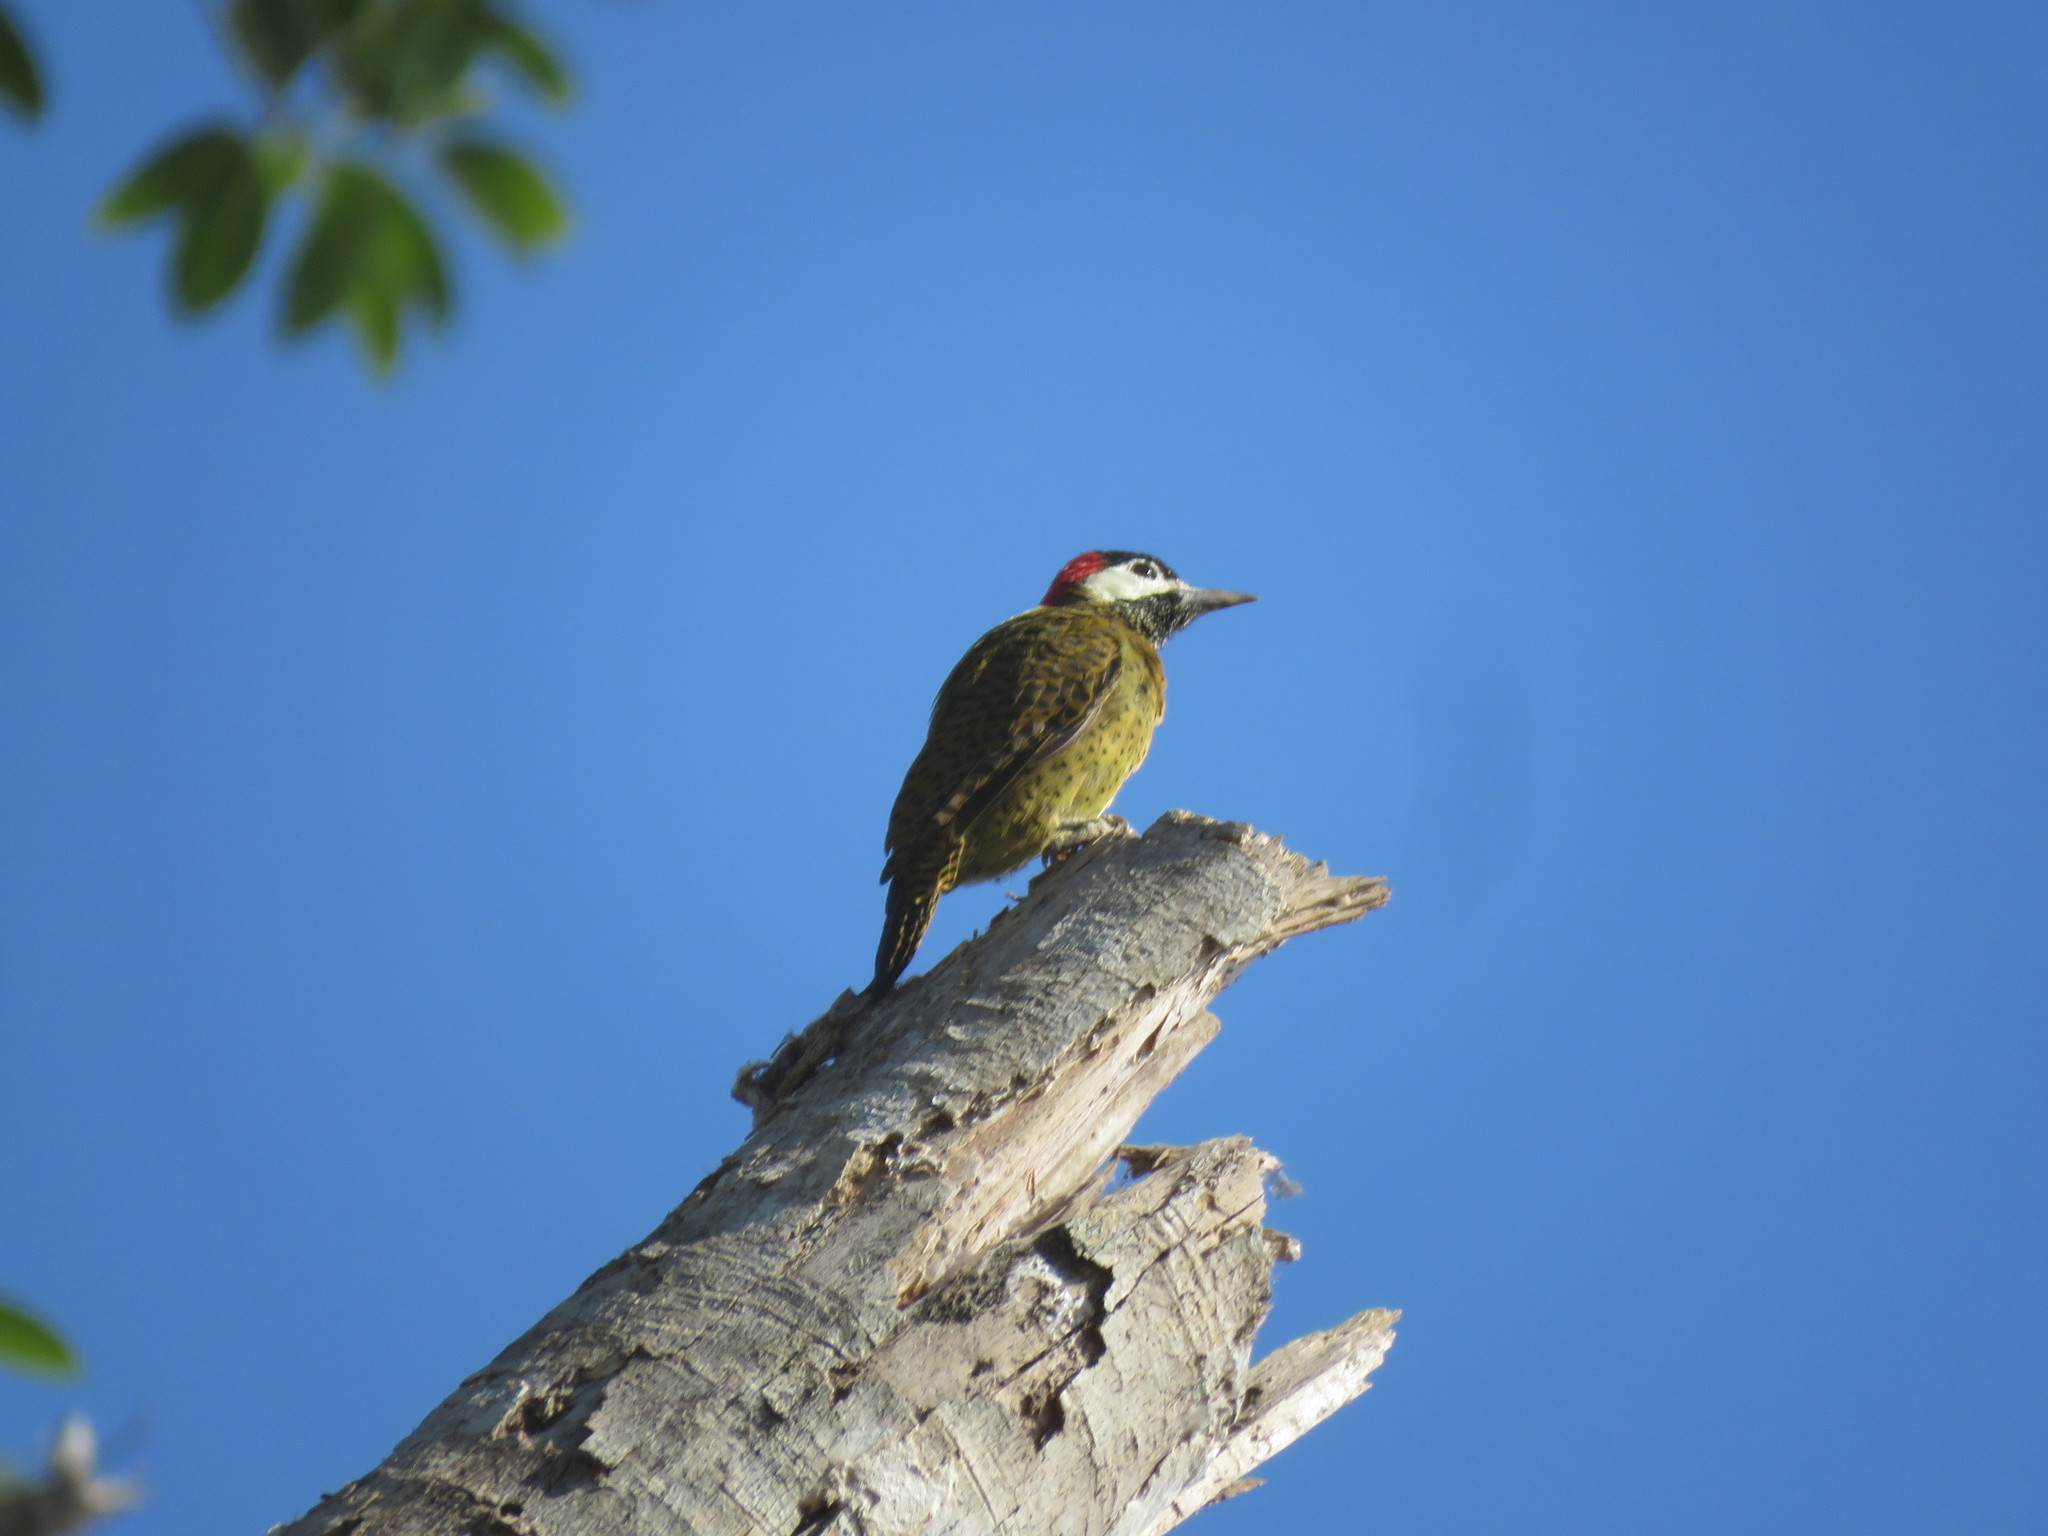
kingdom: Animalia
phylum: Chordata
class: Aves
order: Piciformes
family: Picidae
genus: Colaptes
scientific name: Colaptes punctigula
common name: Spot-breasted woodpecker
